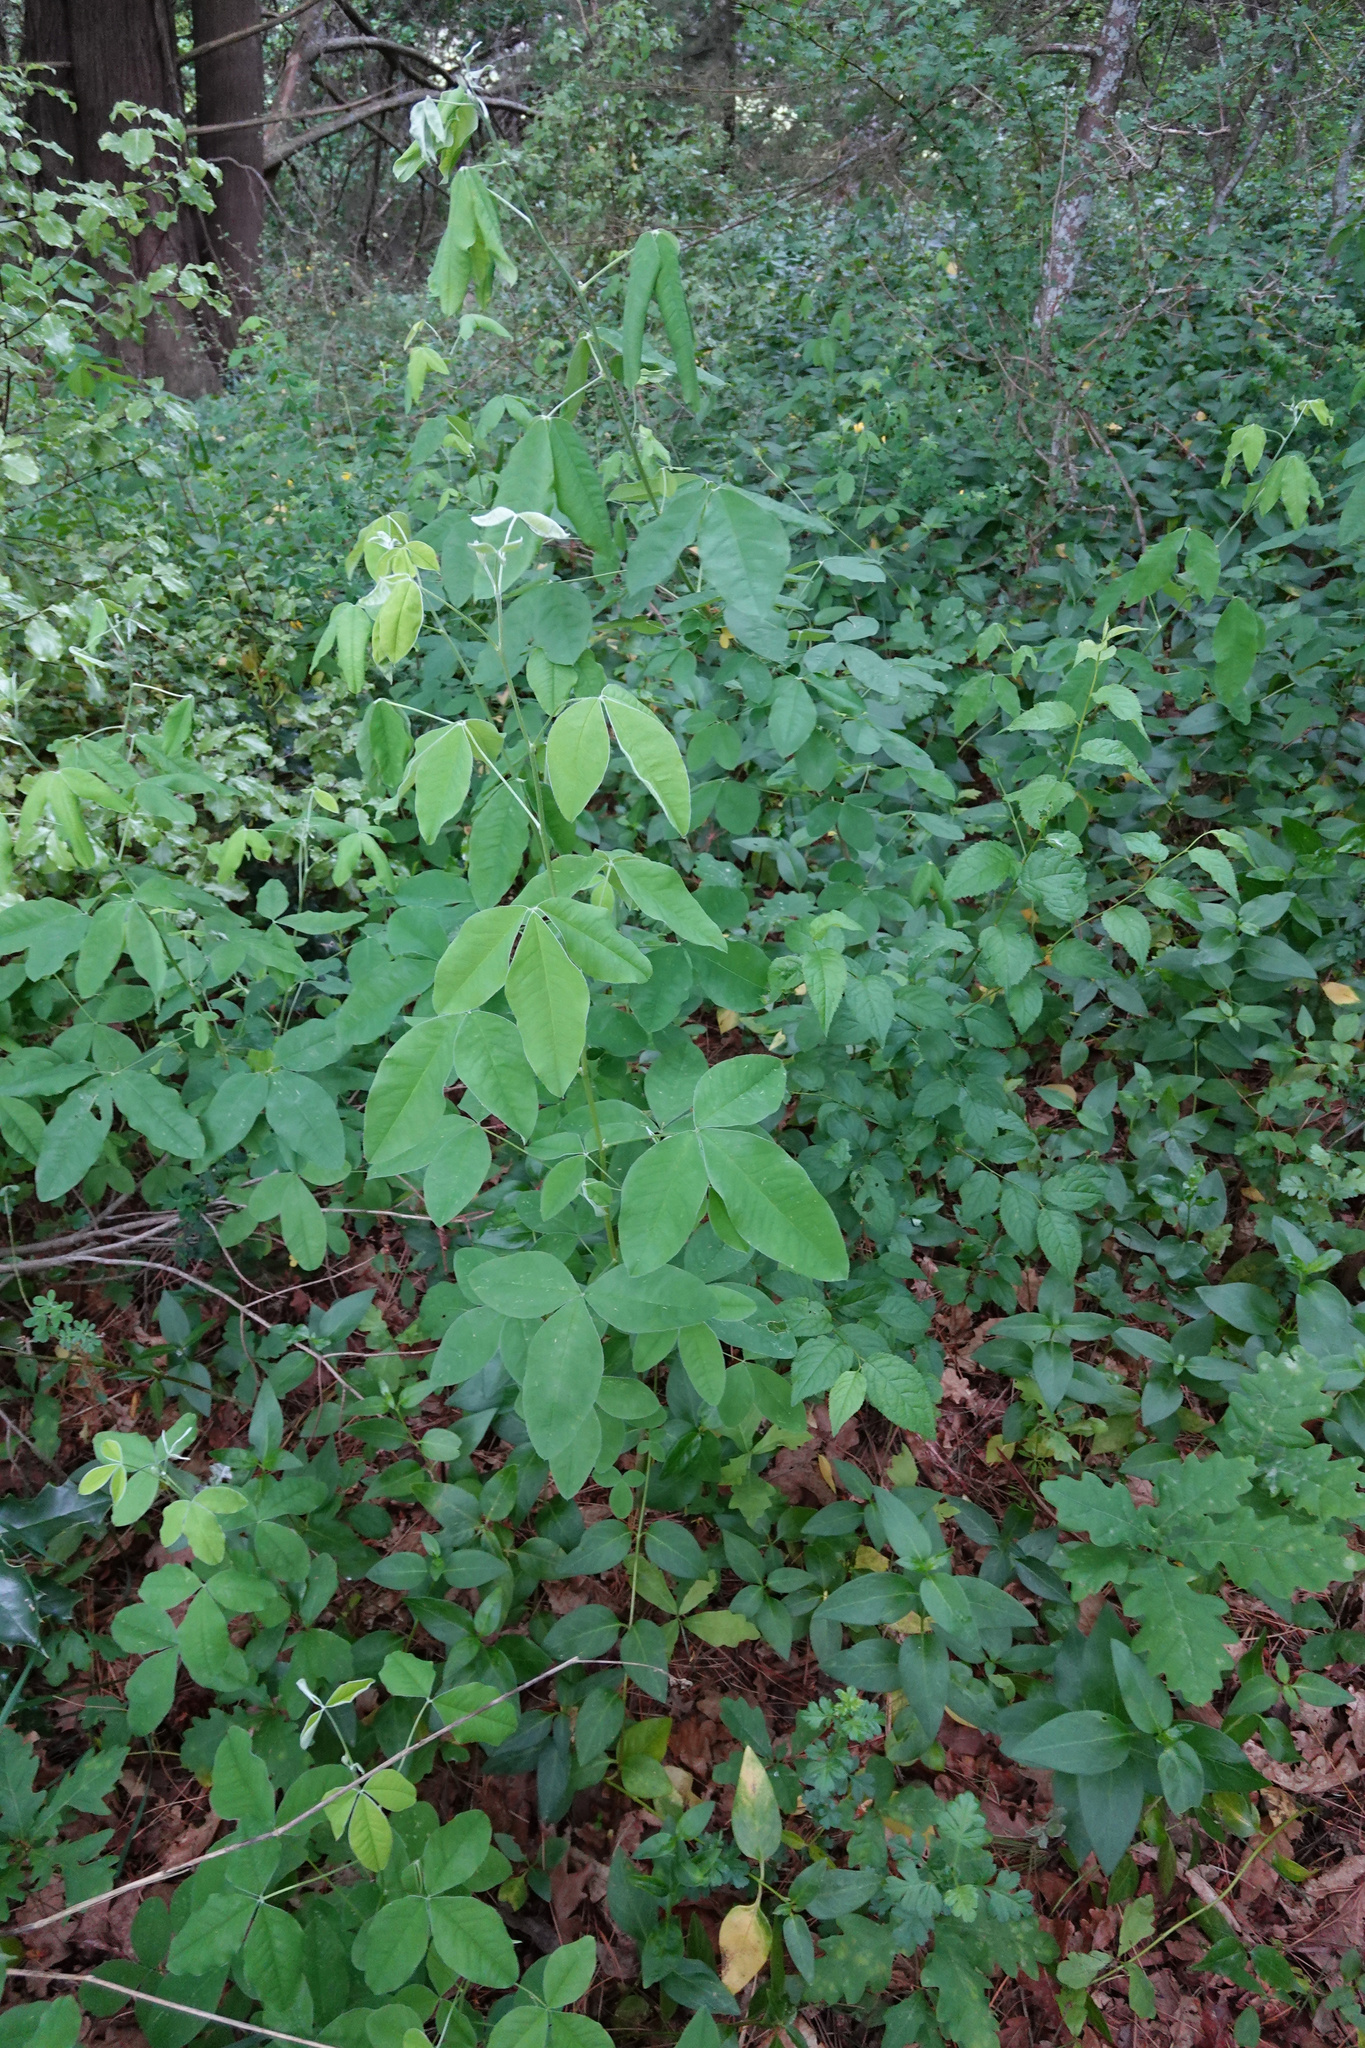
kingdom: Plantae
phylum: Tracheophyta
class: Magnoliopsida
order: Fabales
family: Fabaceae
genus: Laburnum
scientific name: Laburnum anagyroides
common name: Laburnum
